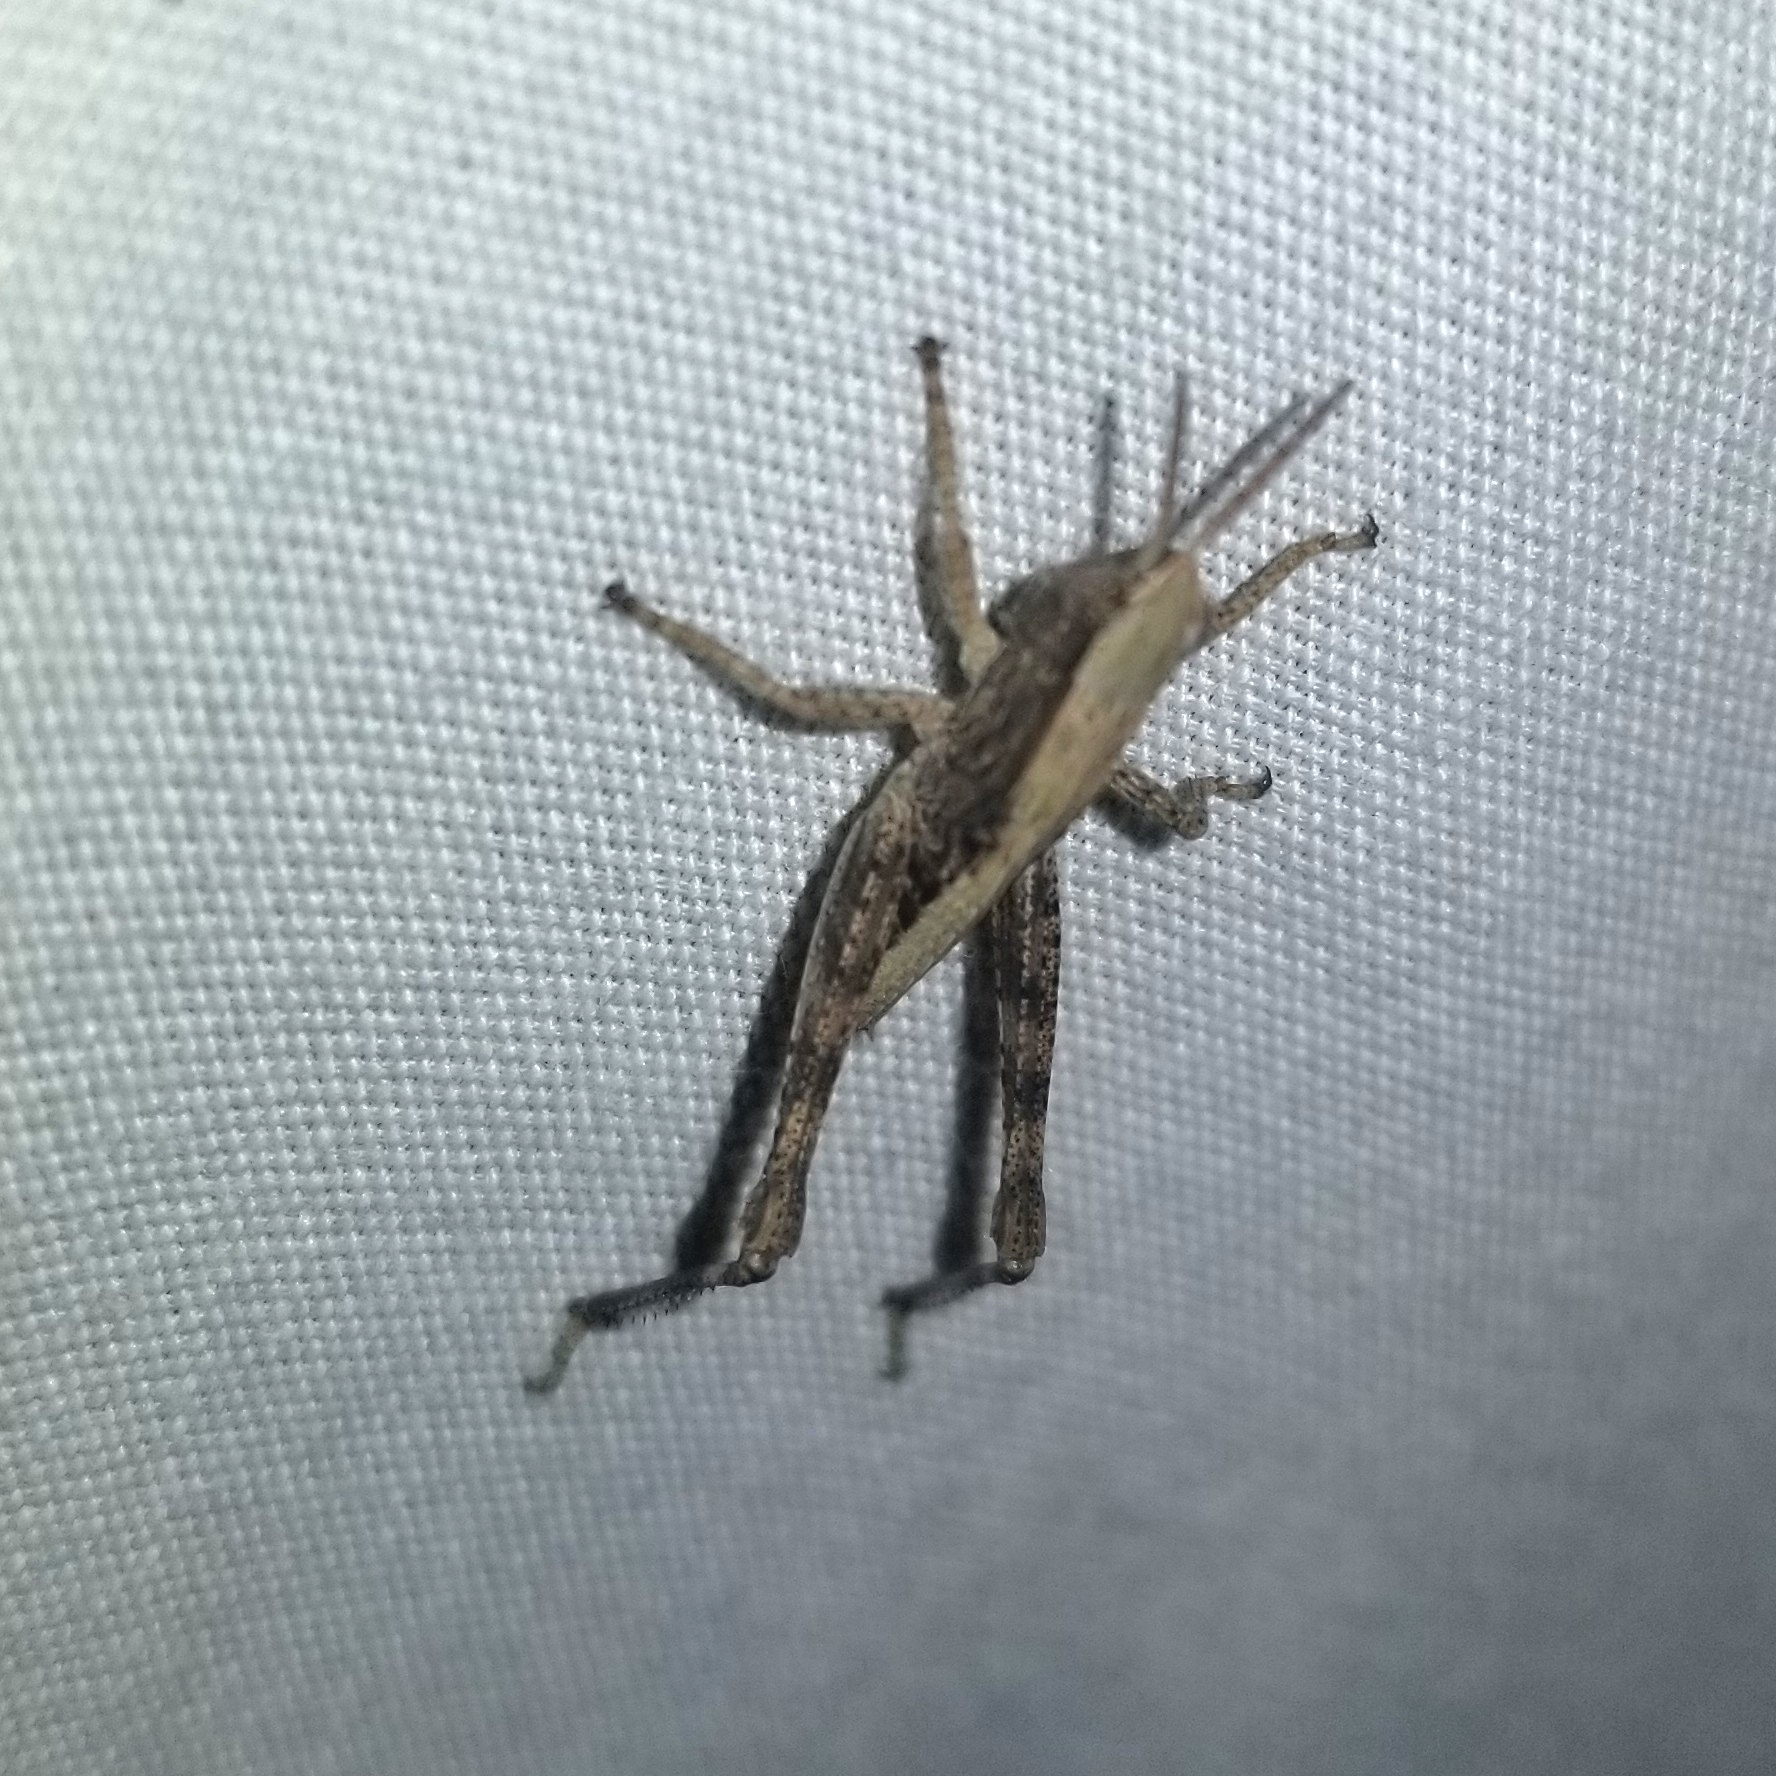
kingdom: Animalia
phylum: Arthropoda
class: Insecta
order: Orthoptera
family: Acrididae
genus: Dichromorpha
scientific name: Dichromorpha viridis
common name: Short-winged green grasshopper
